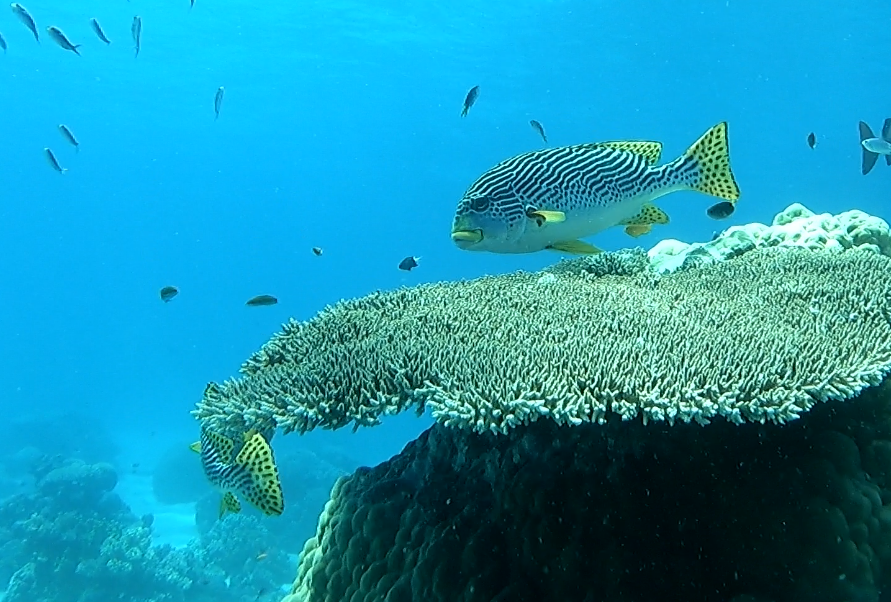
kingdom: Animalia
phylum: Chordata
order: Perciformes
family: Haemulidae
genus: Plectorhinchus
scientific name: Plectorhinchus lineatus
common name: Goldman's sweetlips
